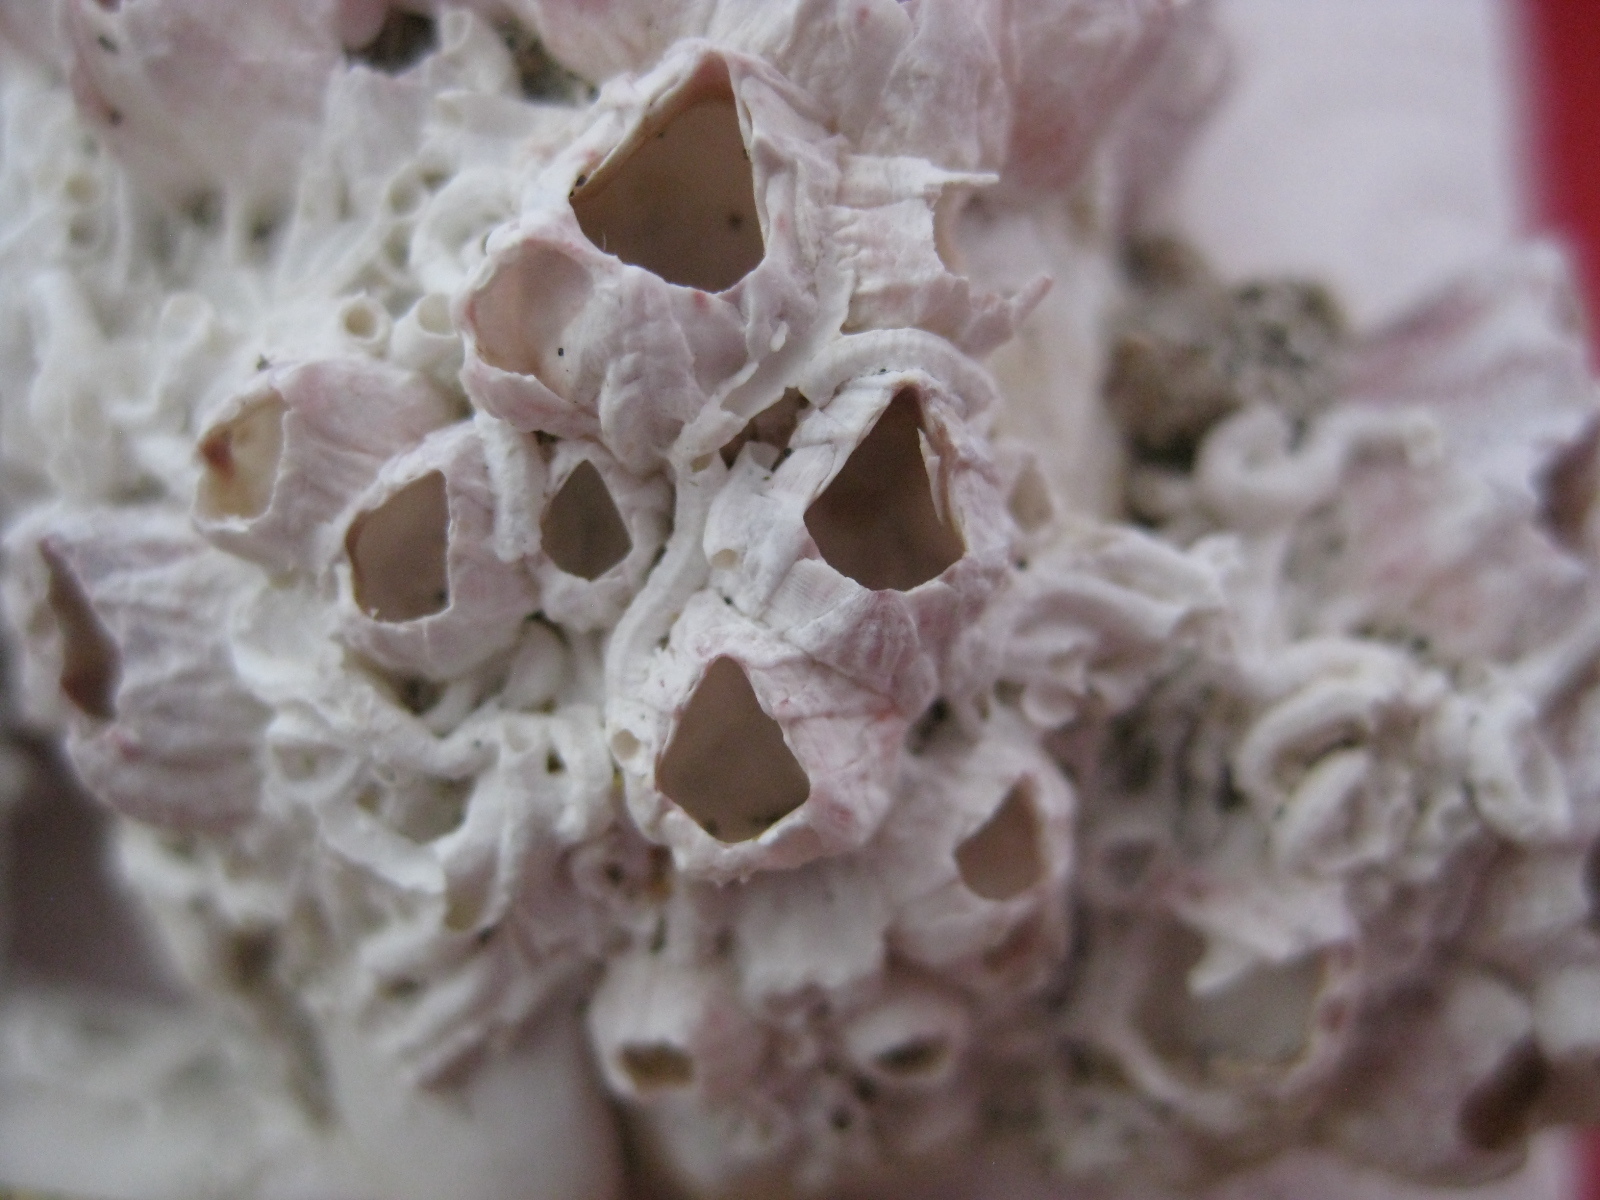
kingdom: Animalia
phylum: Arthropoda
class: Maxillopoda
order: Sessilia
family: Balanidae
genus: Balanus
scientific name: Balanus trigonus
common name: Triangle barnacle
